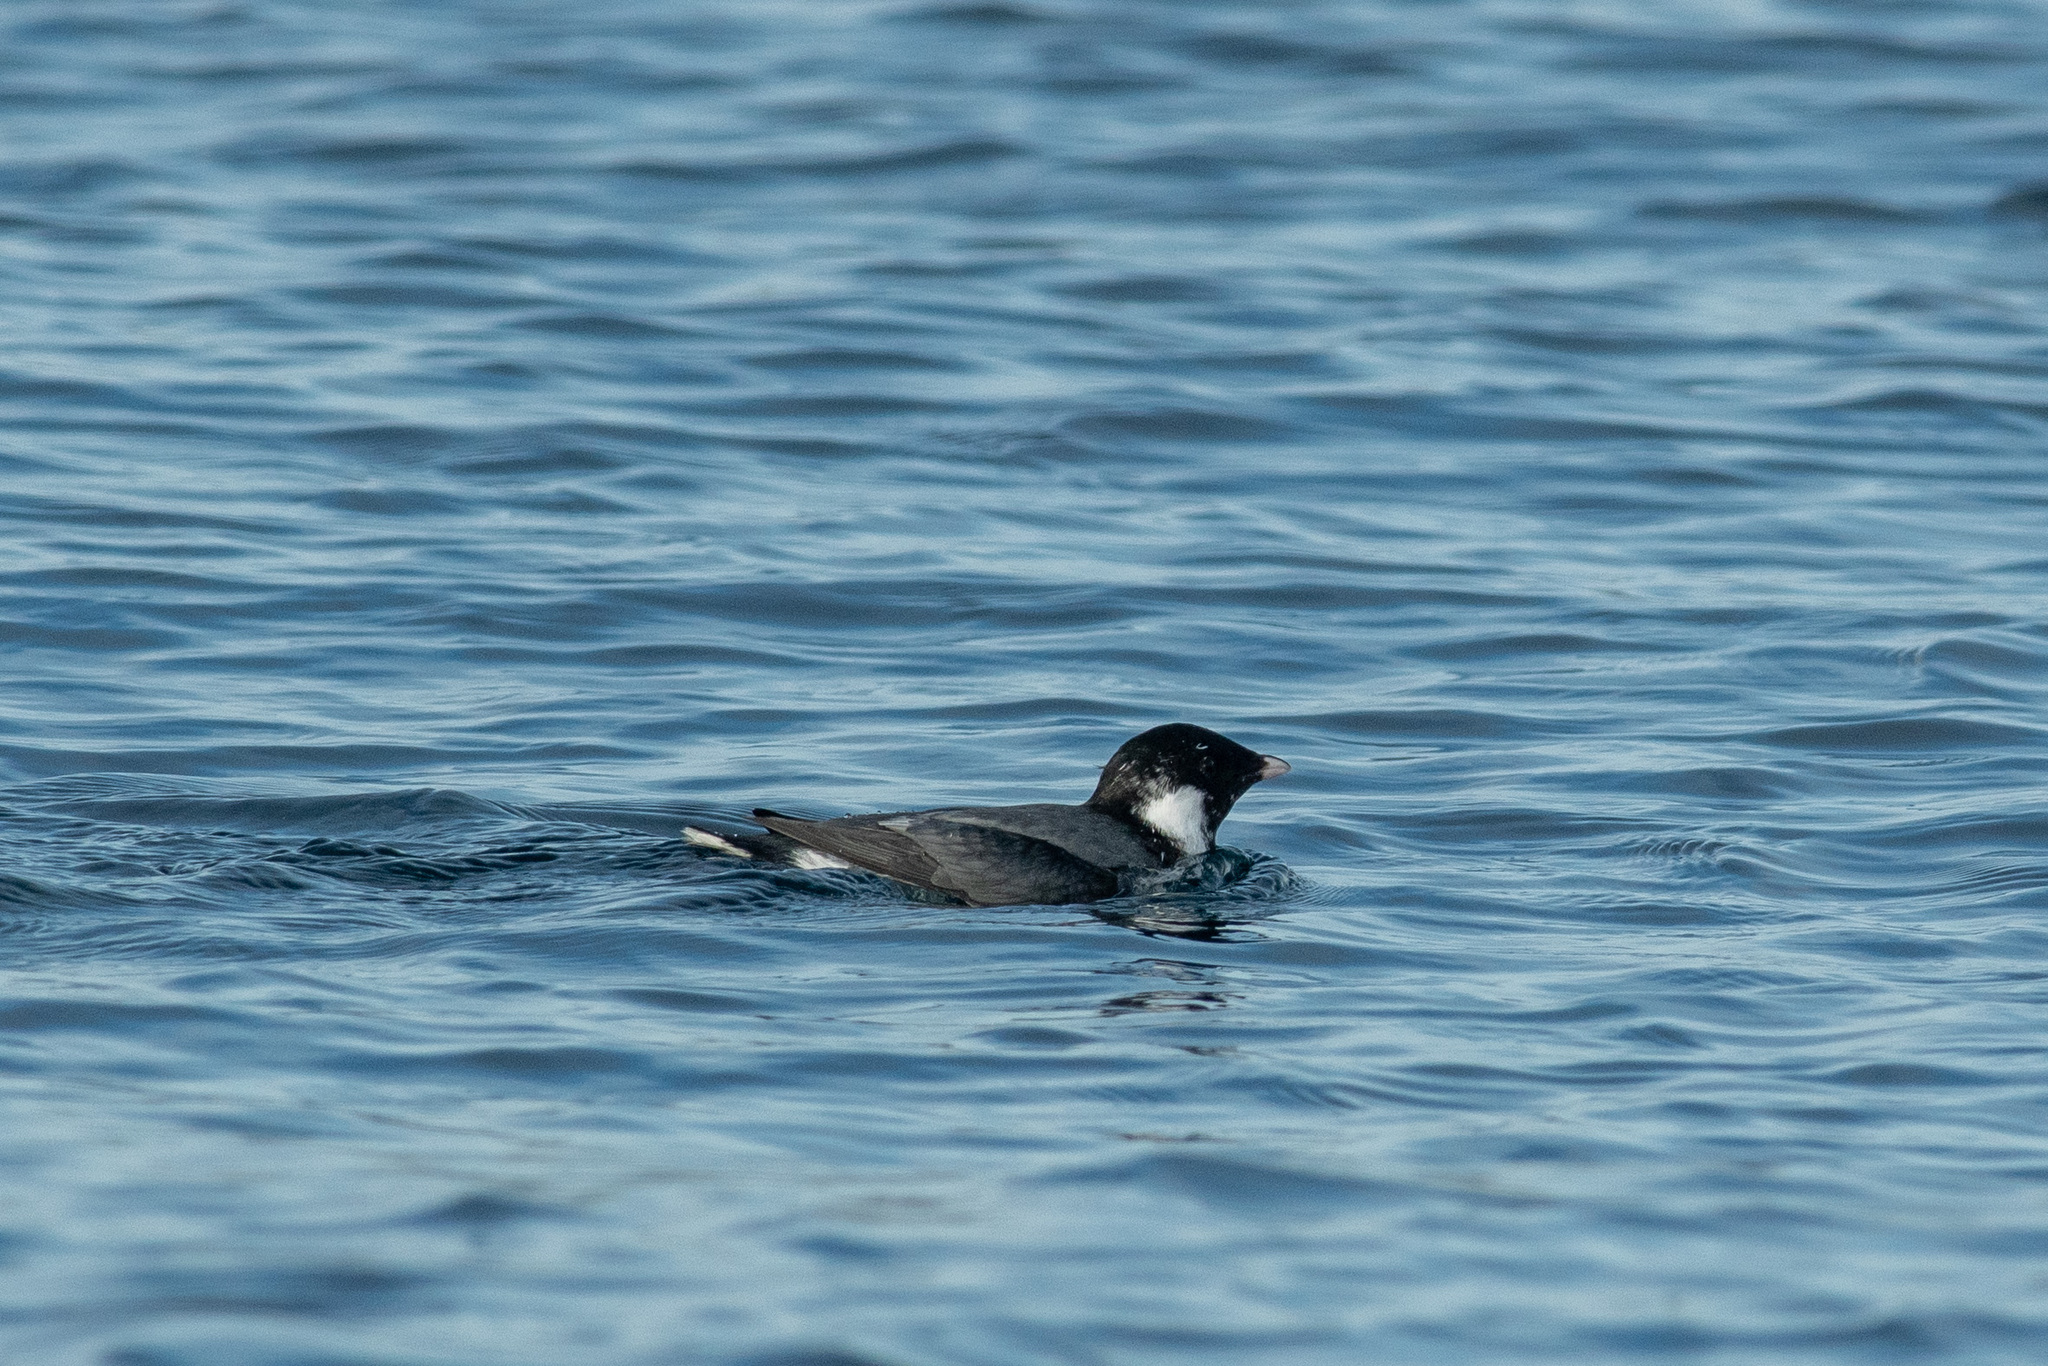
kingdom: Animalia
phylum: Chordata
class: Aves
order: Charadriiformes
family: Alcidae
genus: Synthliboramphus
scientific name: Synthliboramphus antiquus
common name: Ancient murrelet
